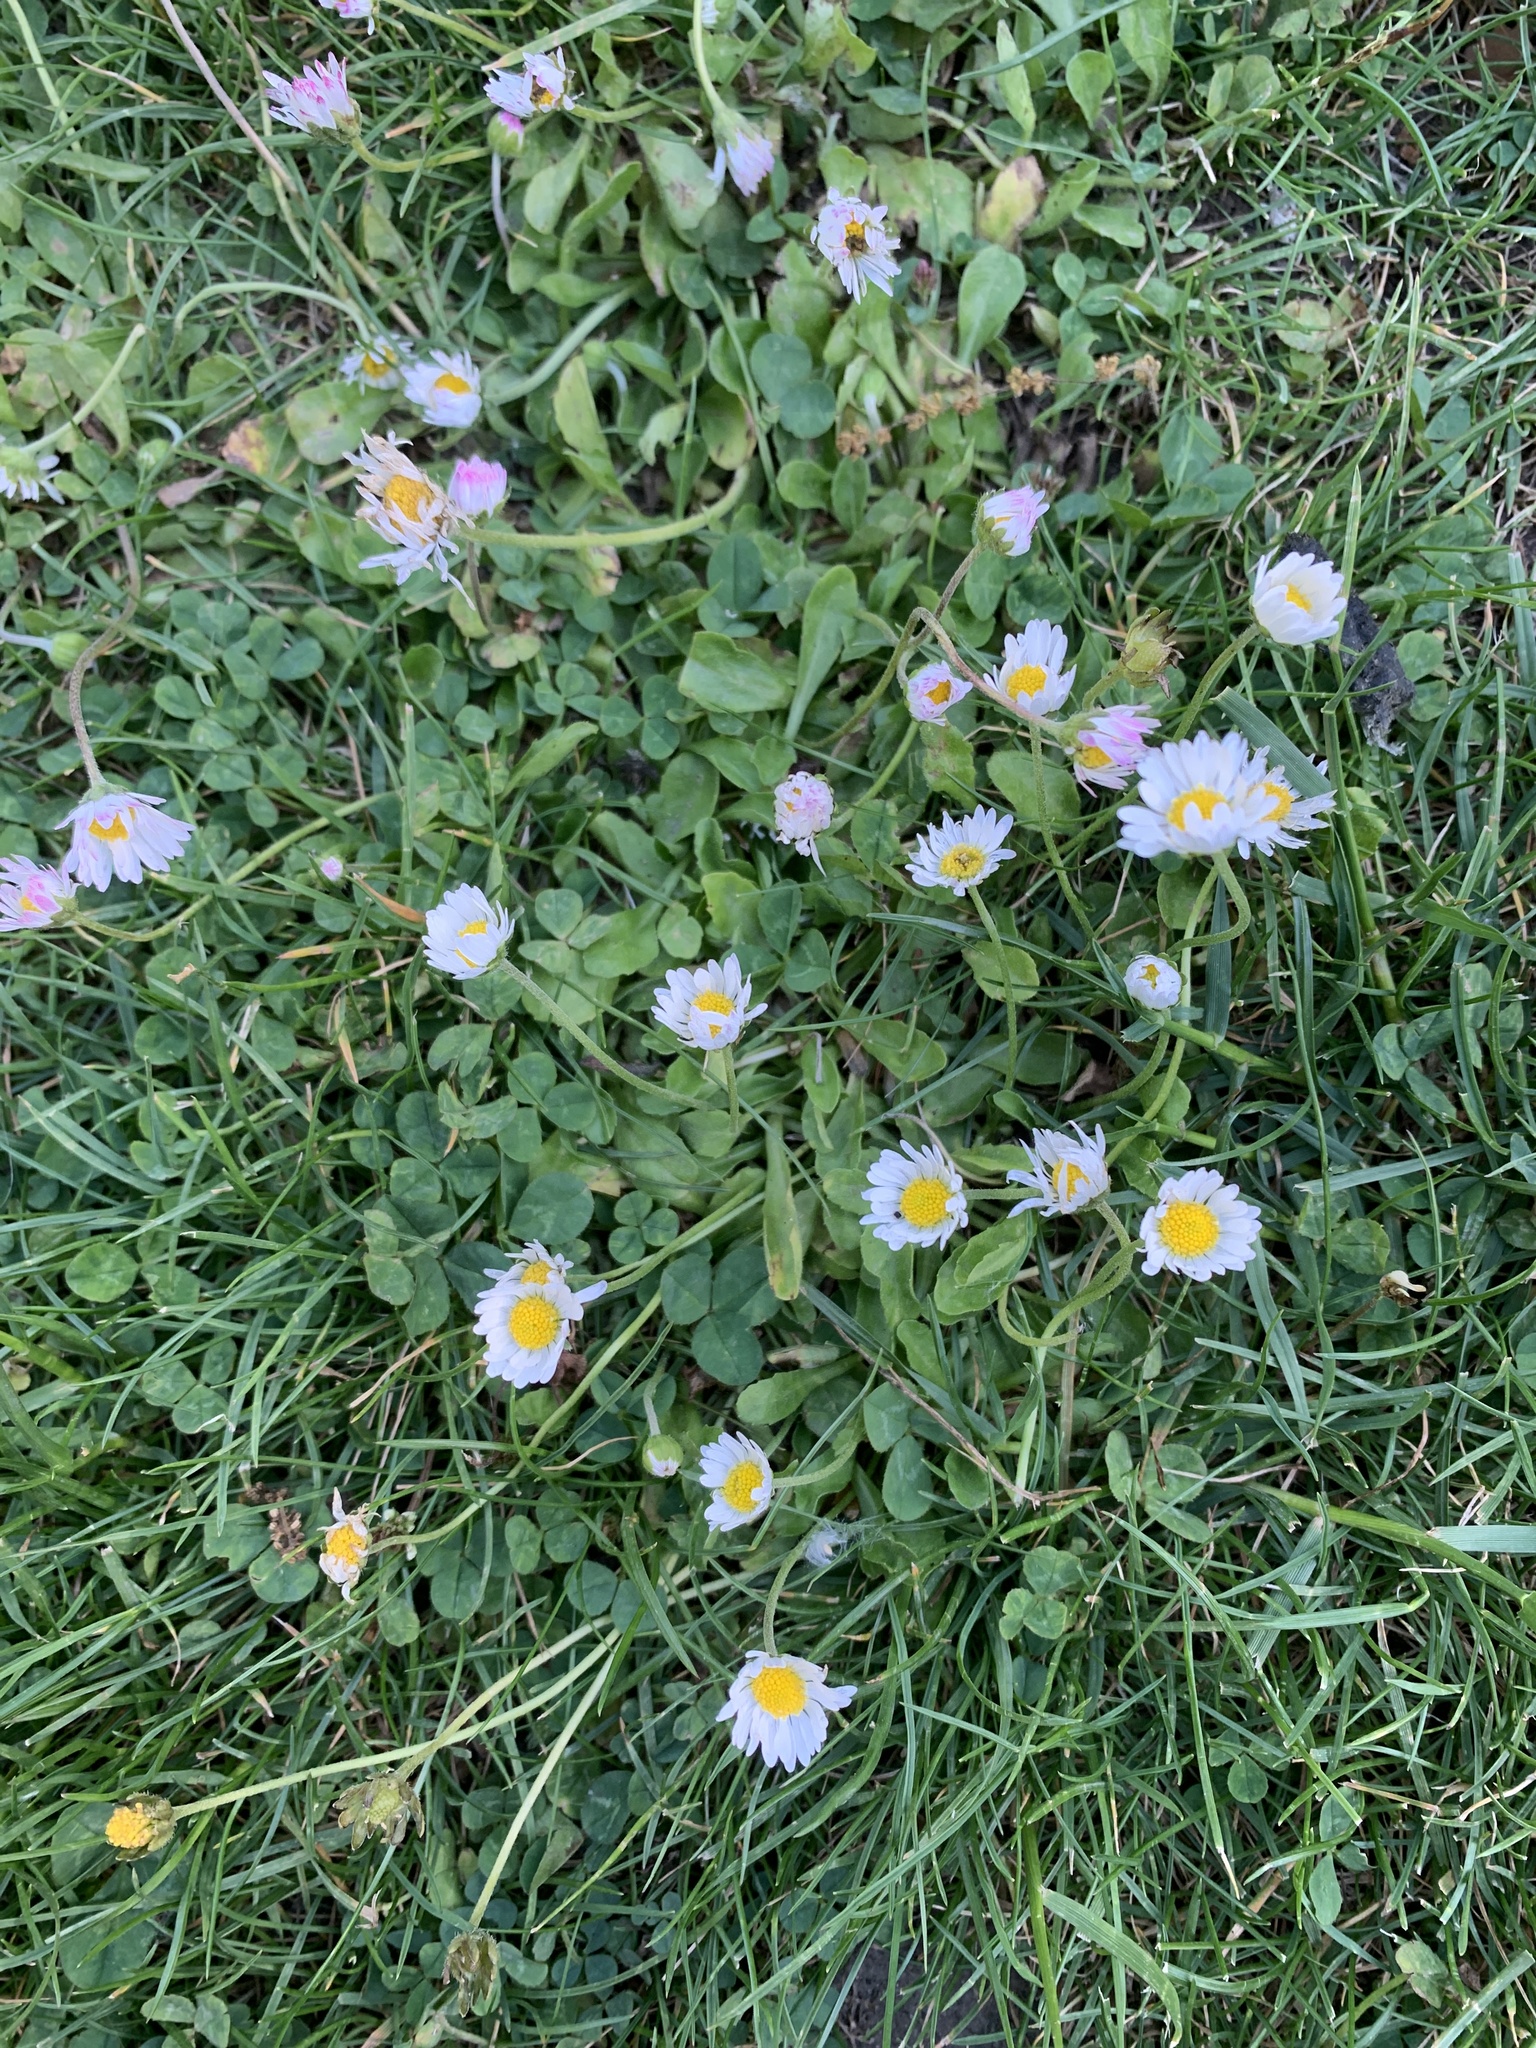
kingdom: Plantae
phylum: Tracheophyta
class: Magnoliopsida
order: Asterales
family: Asteraceae
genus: Bellis
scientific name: Bellis perennis
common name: Lawndaisy
